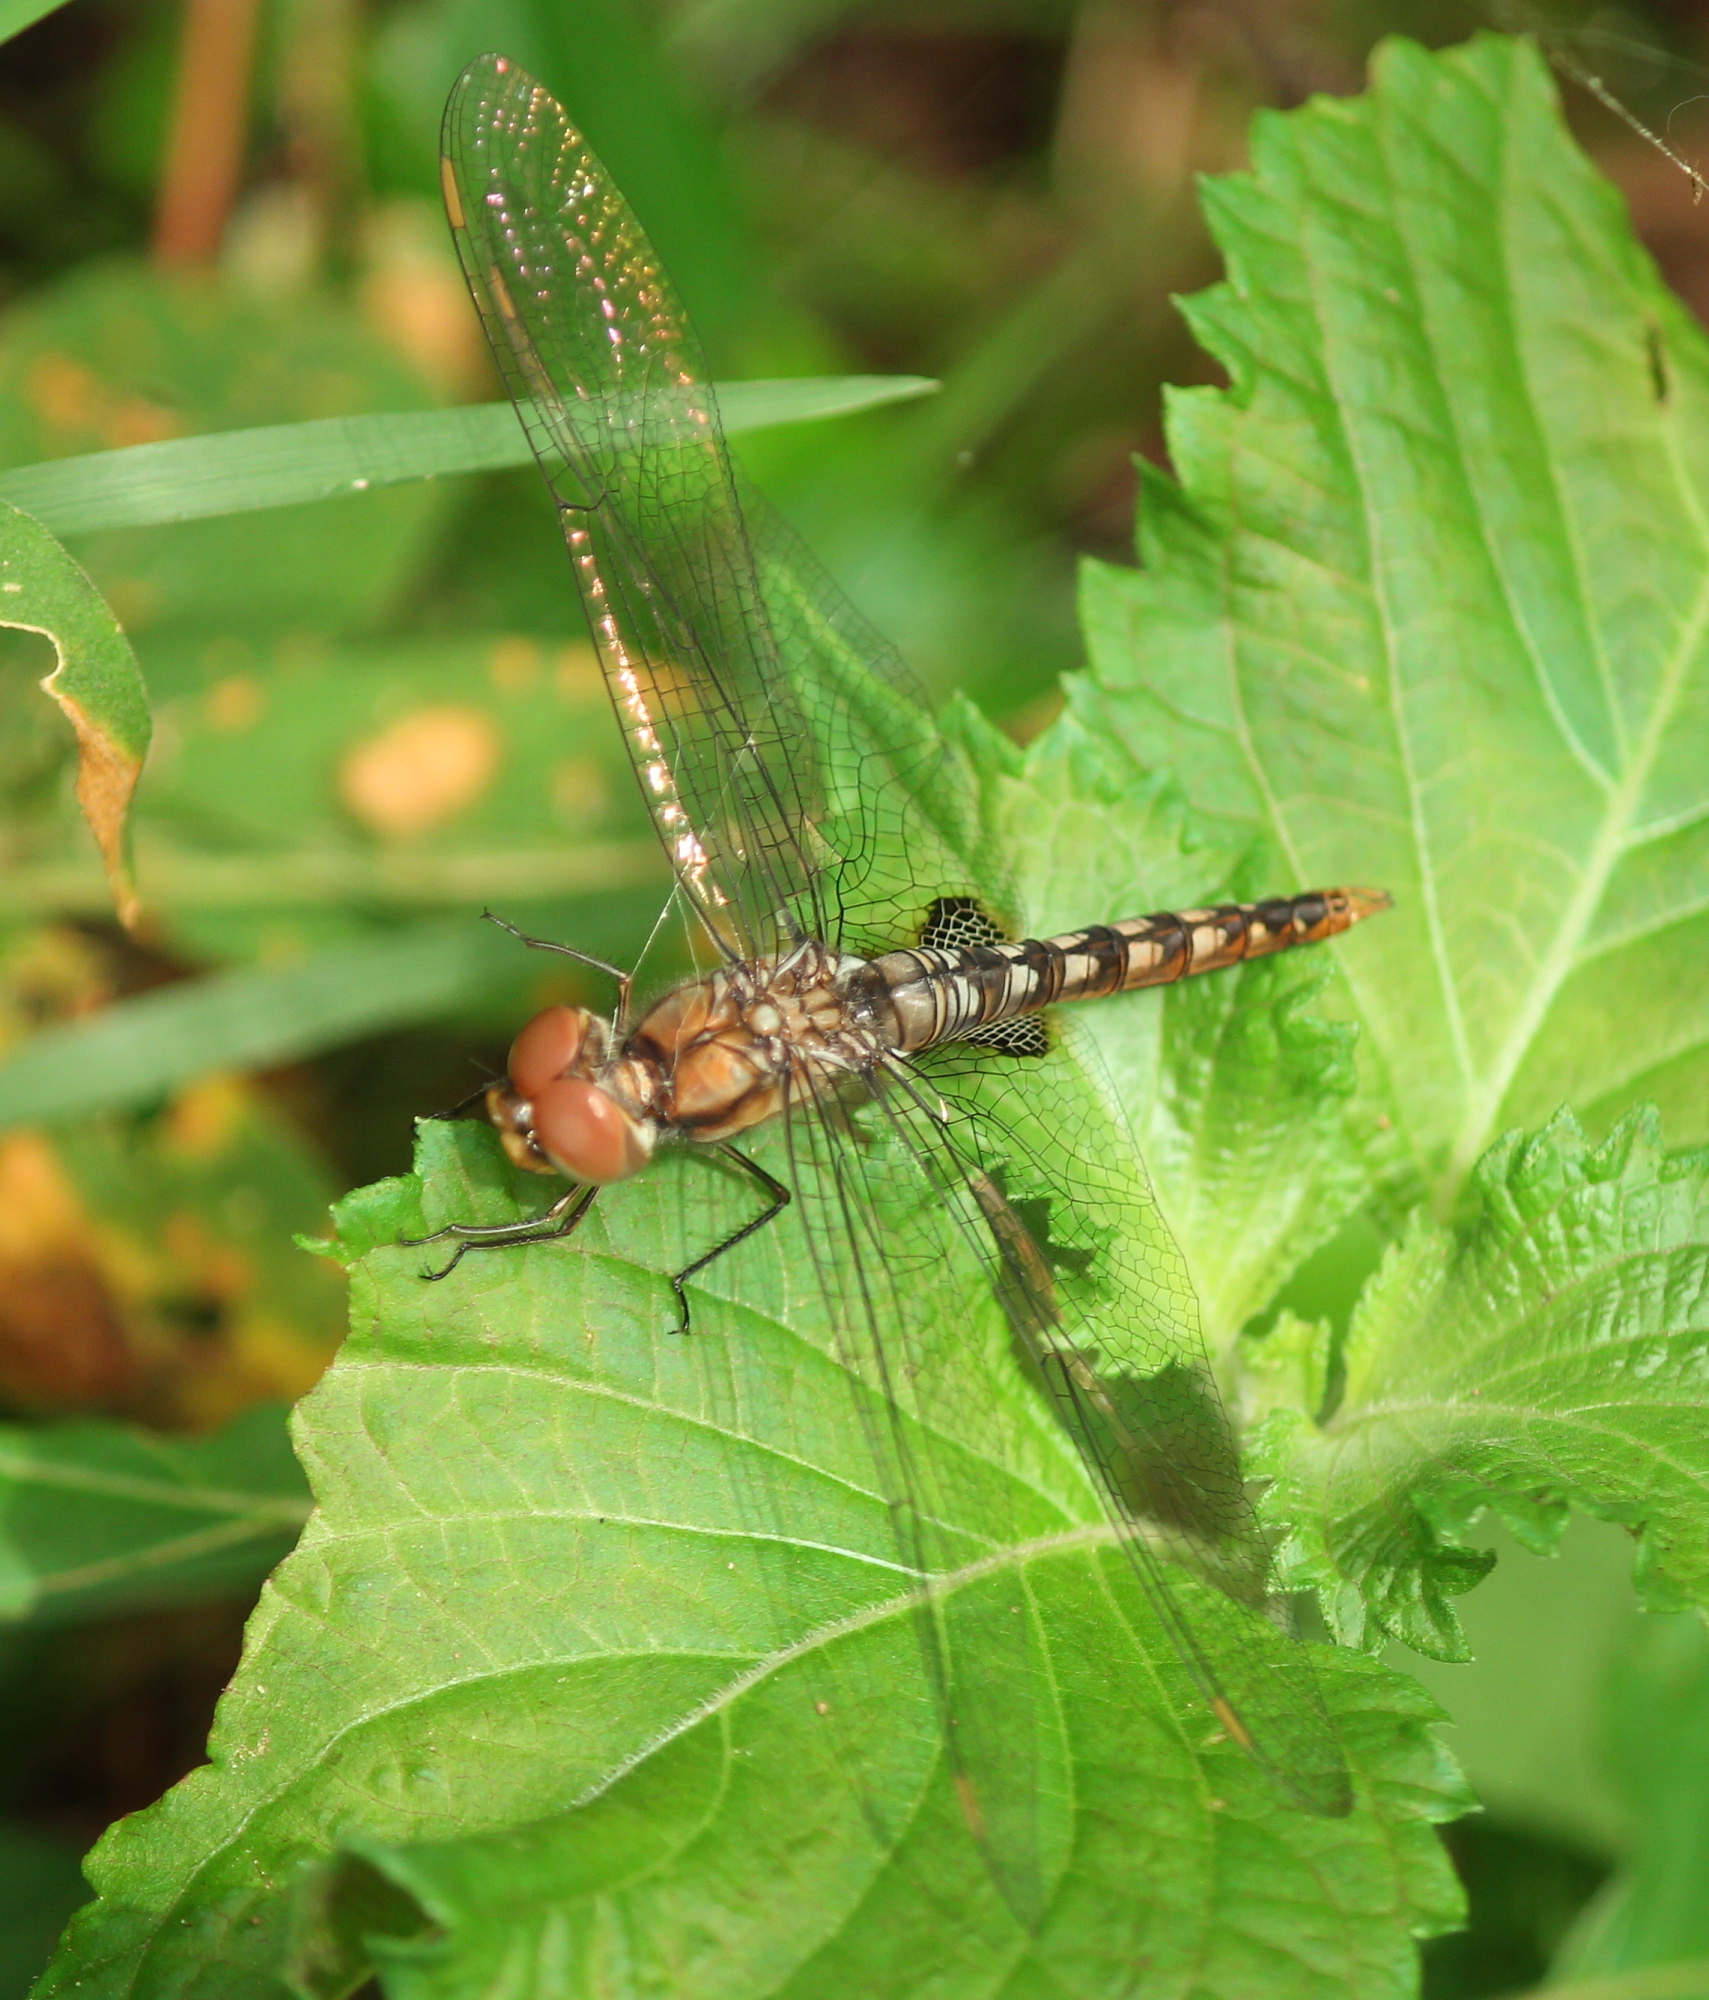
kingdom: Animalia
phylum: Arthropoda
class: Insecta
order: Odonata
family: Libellulidae
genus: Pantala
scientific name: Pantala hymenaea
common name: Spot-winged glider
